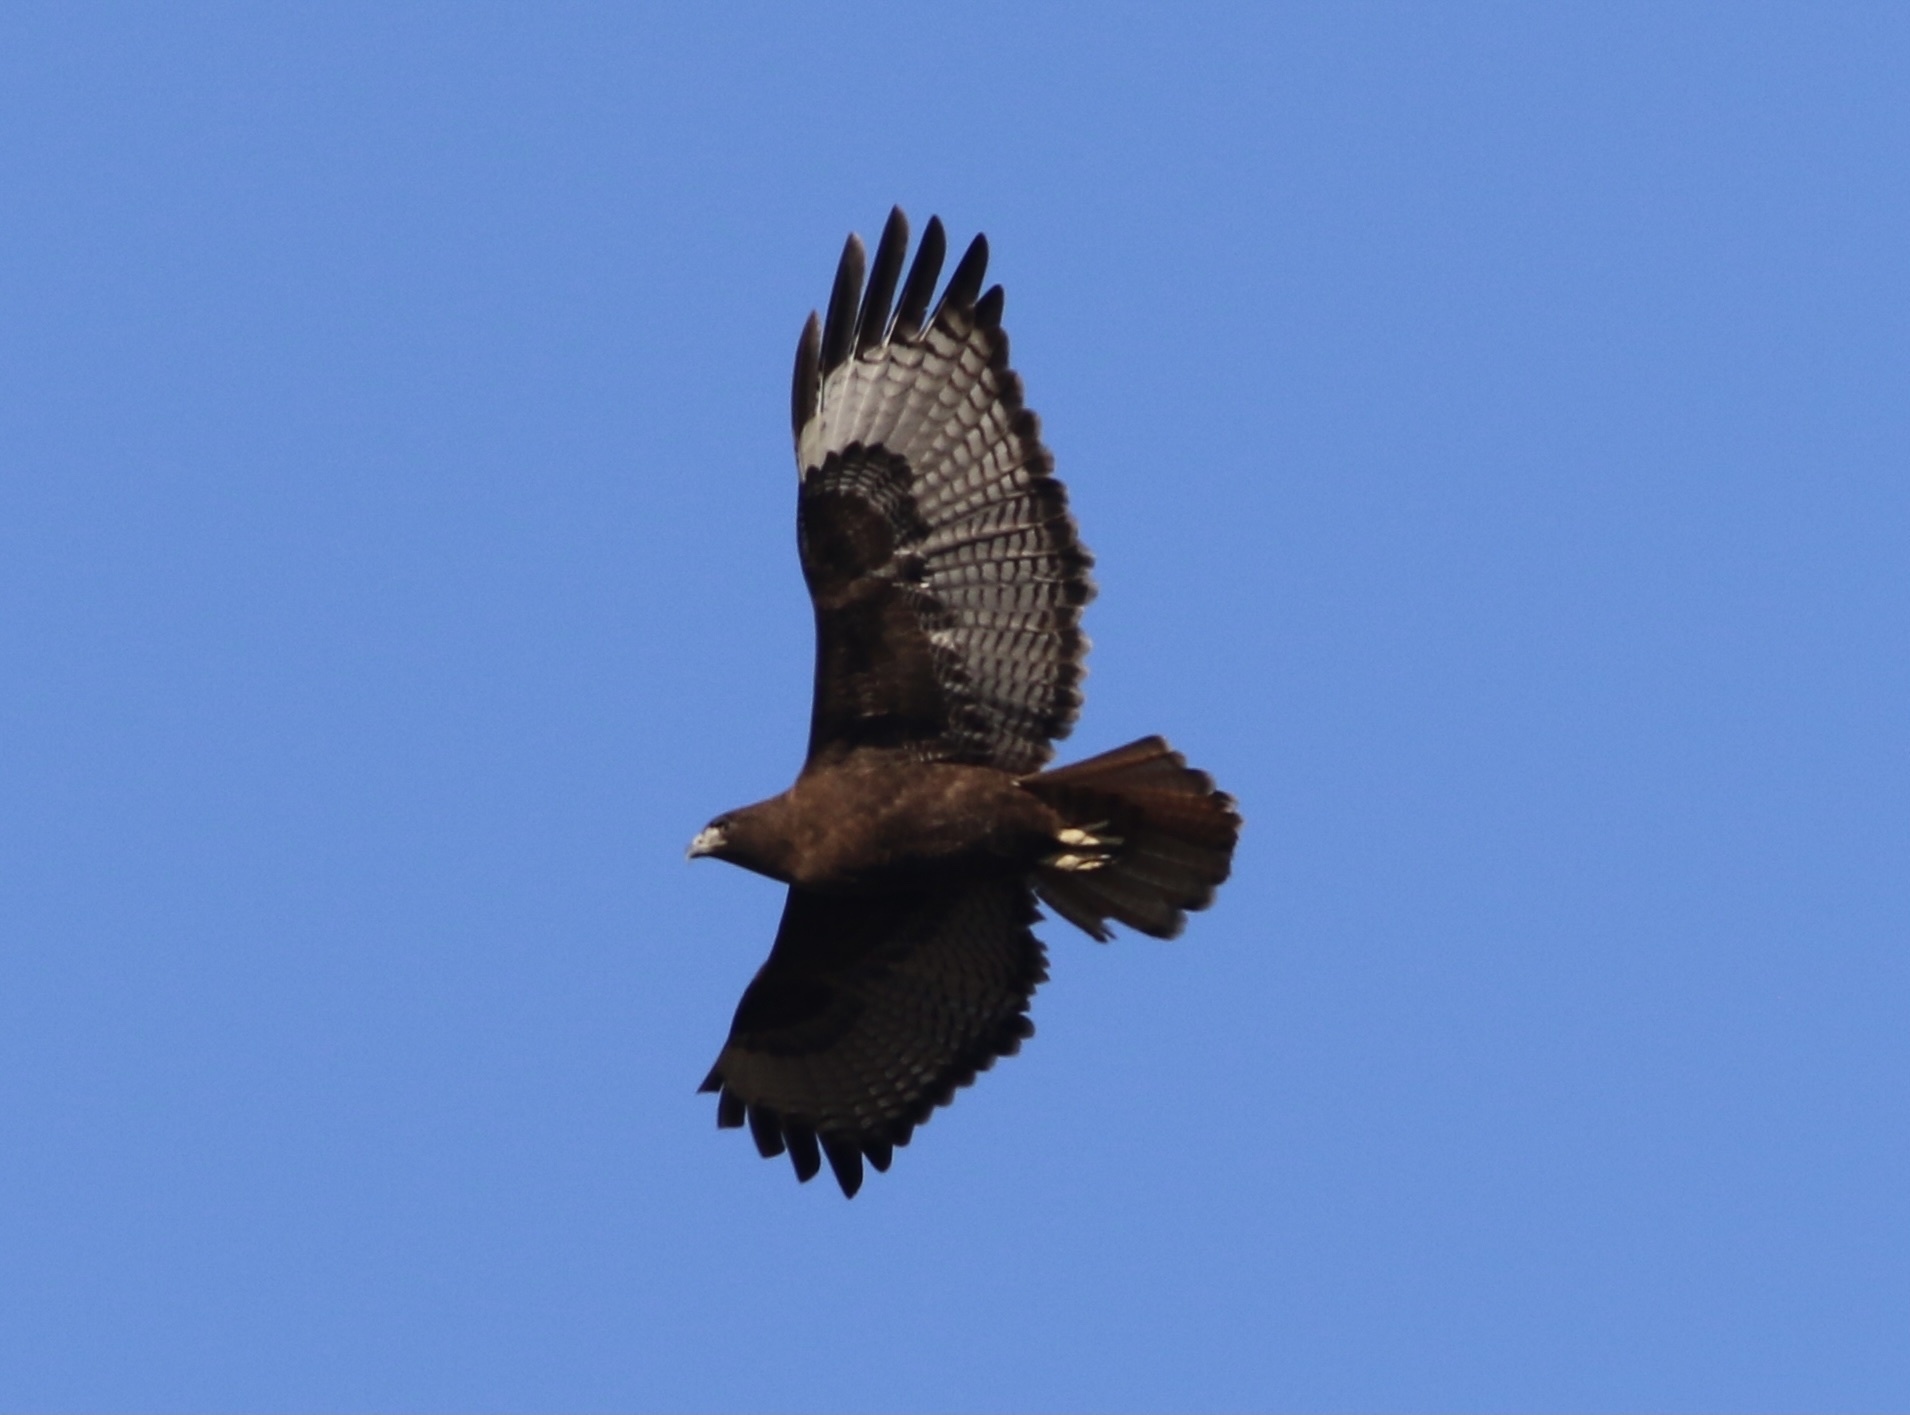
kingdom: Animalia
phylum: Chordata
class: Aves
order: Accipitriformes
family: Accipitridae
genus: Buteo
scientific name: Buteo jamaicensis
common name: Red-tailed hawk
